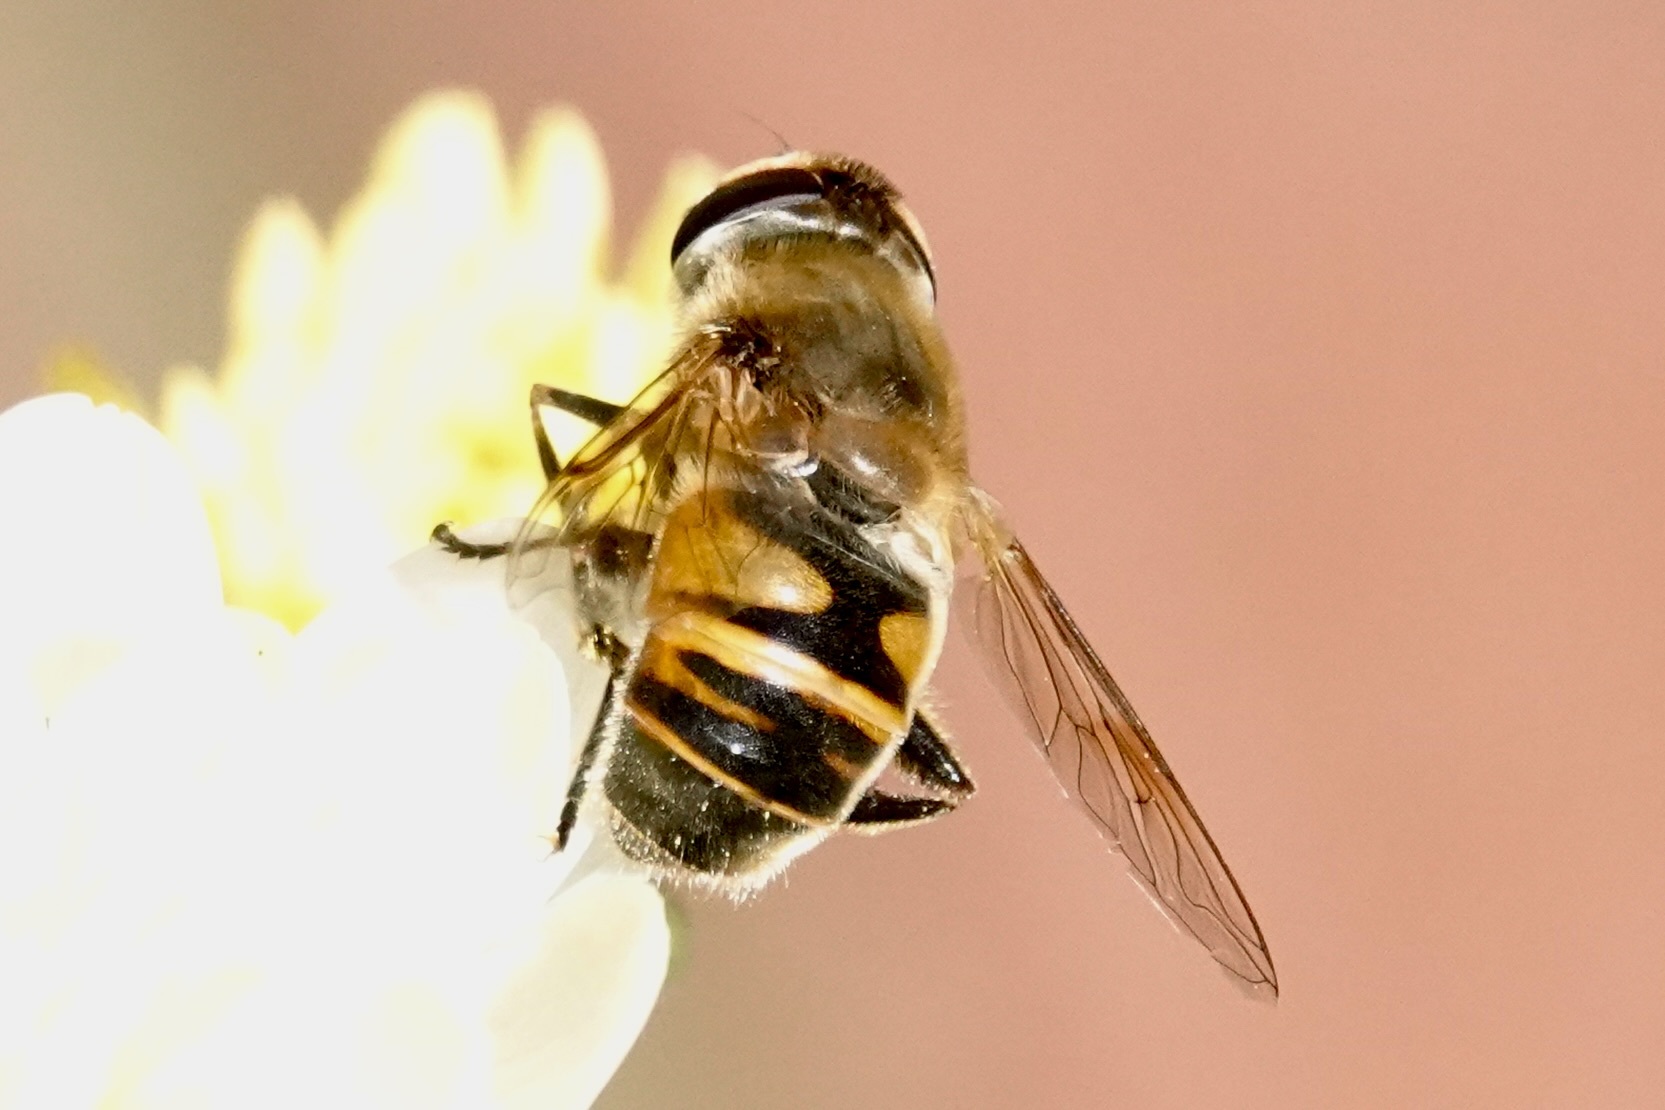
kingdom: Animalia
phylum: Arthropoda
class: Insecta
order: Diptera
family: Syrphidae
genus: Eristalis
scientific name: Eristalis tenax
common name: Drone fly
